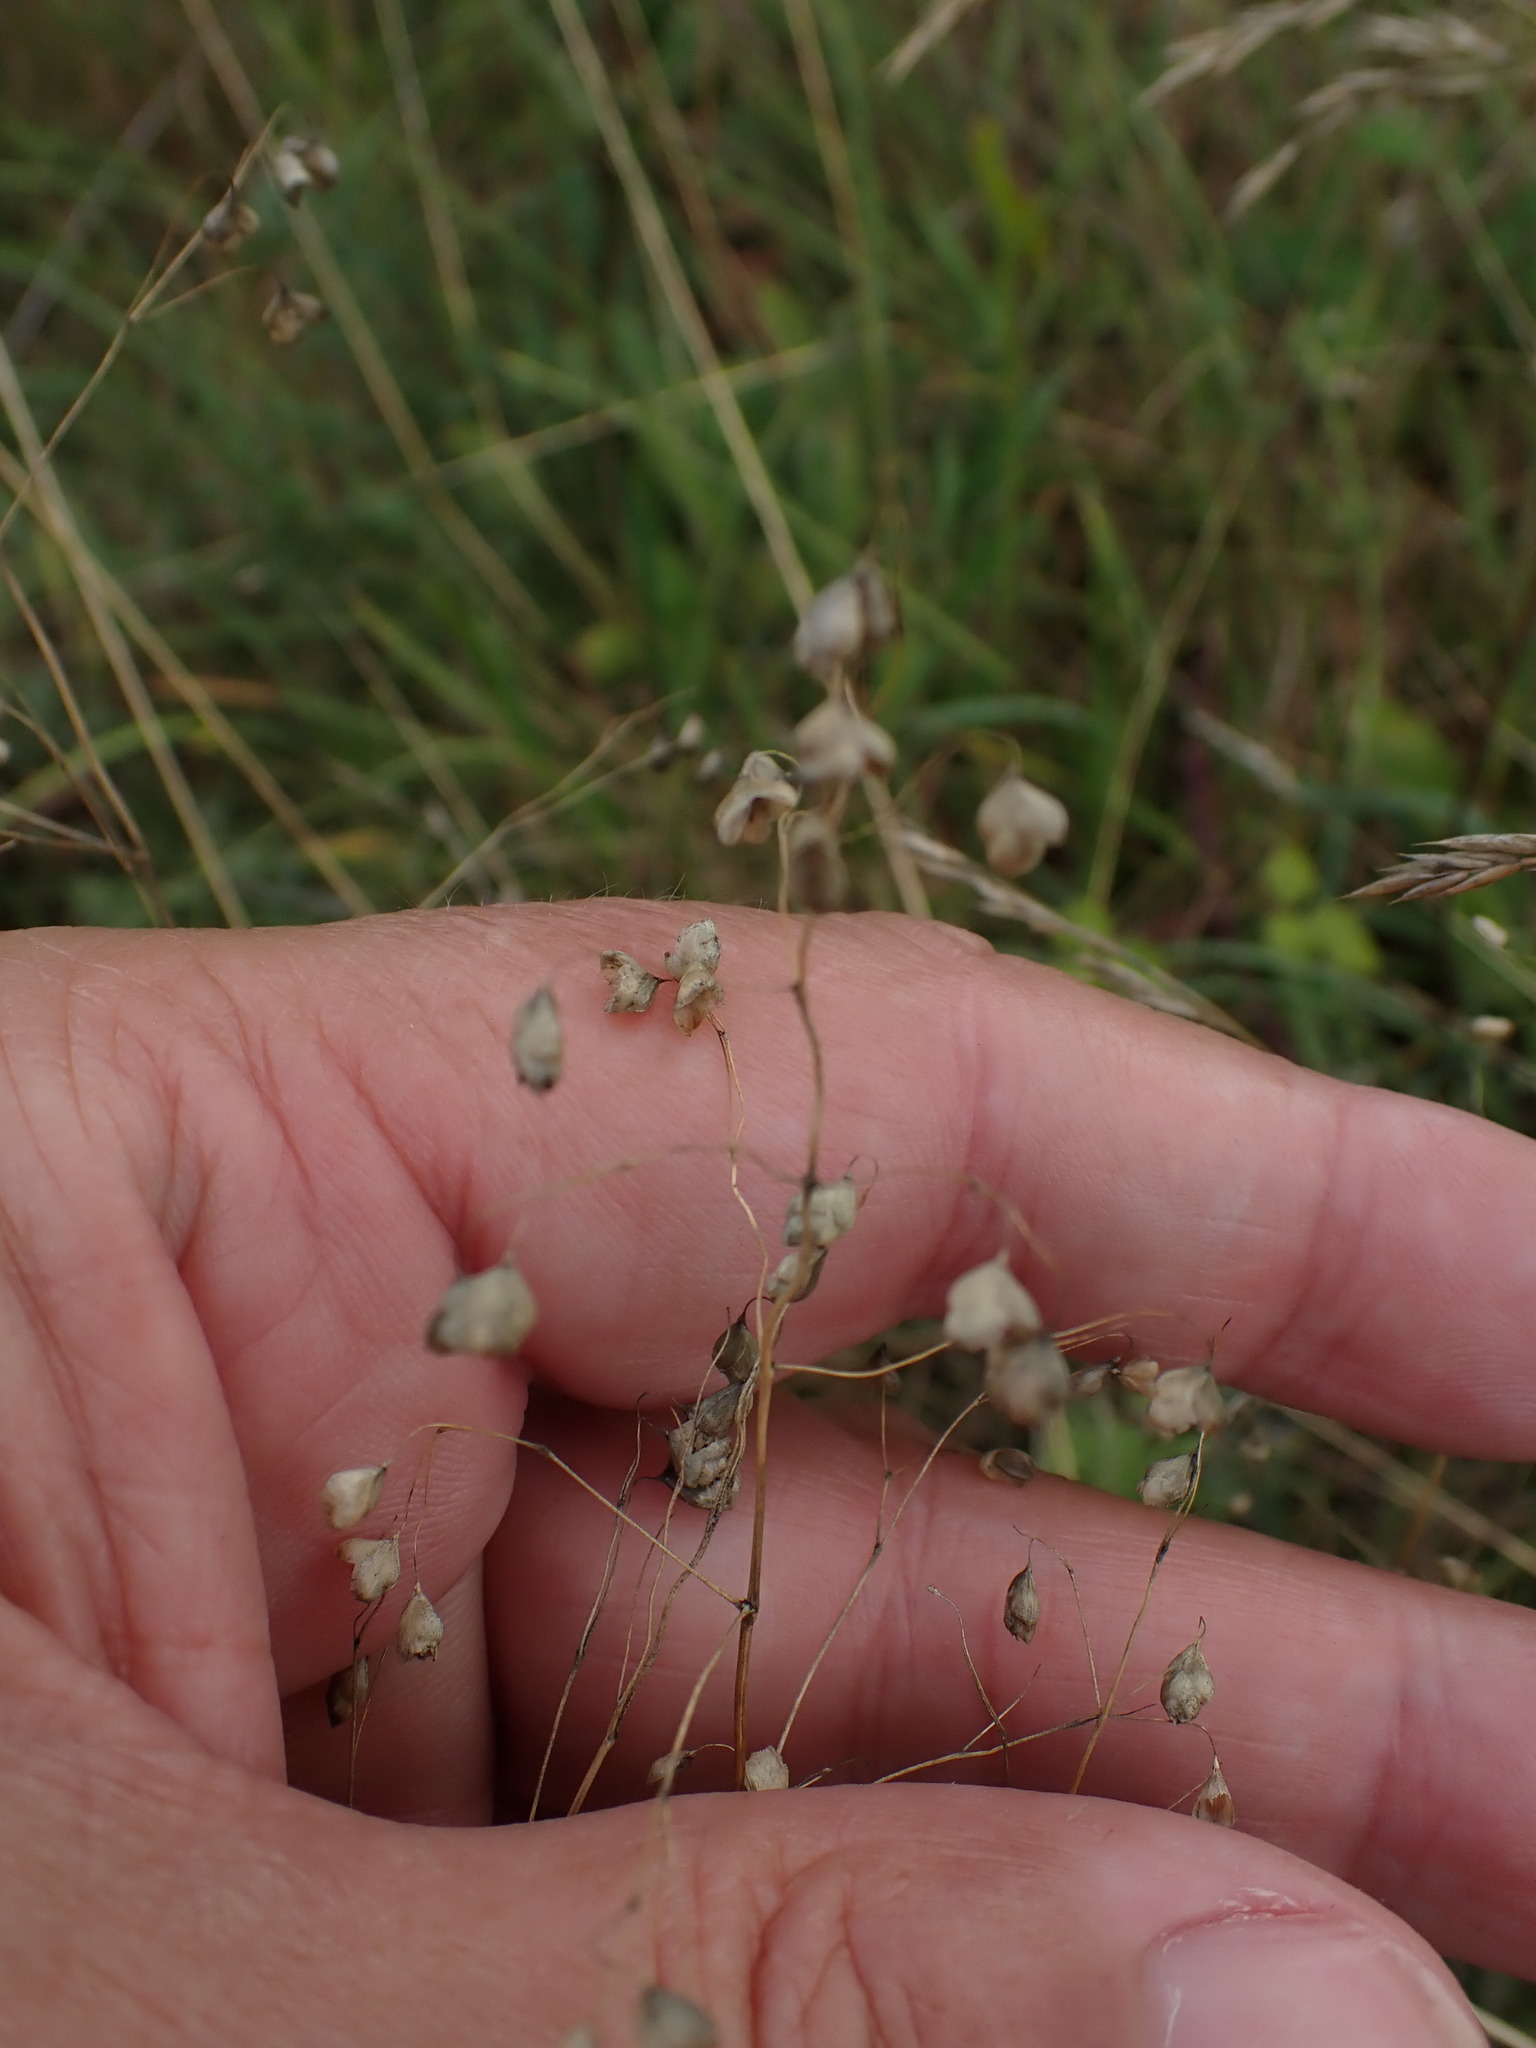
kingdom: Plantae
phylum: Tracheophyta
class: Liliopsida
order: Poales
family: Poaceae
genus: Briza
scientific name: Briza media
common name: Quaking grass
